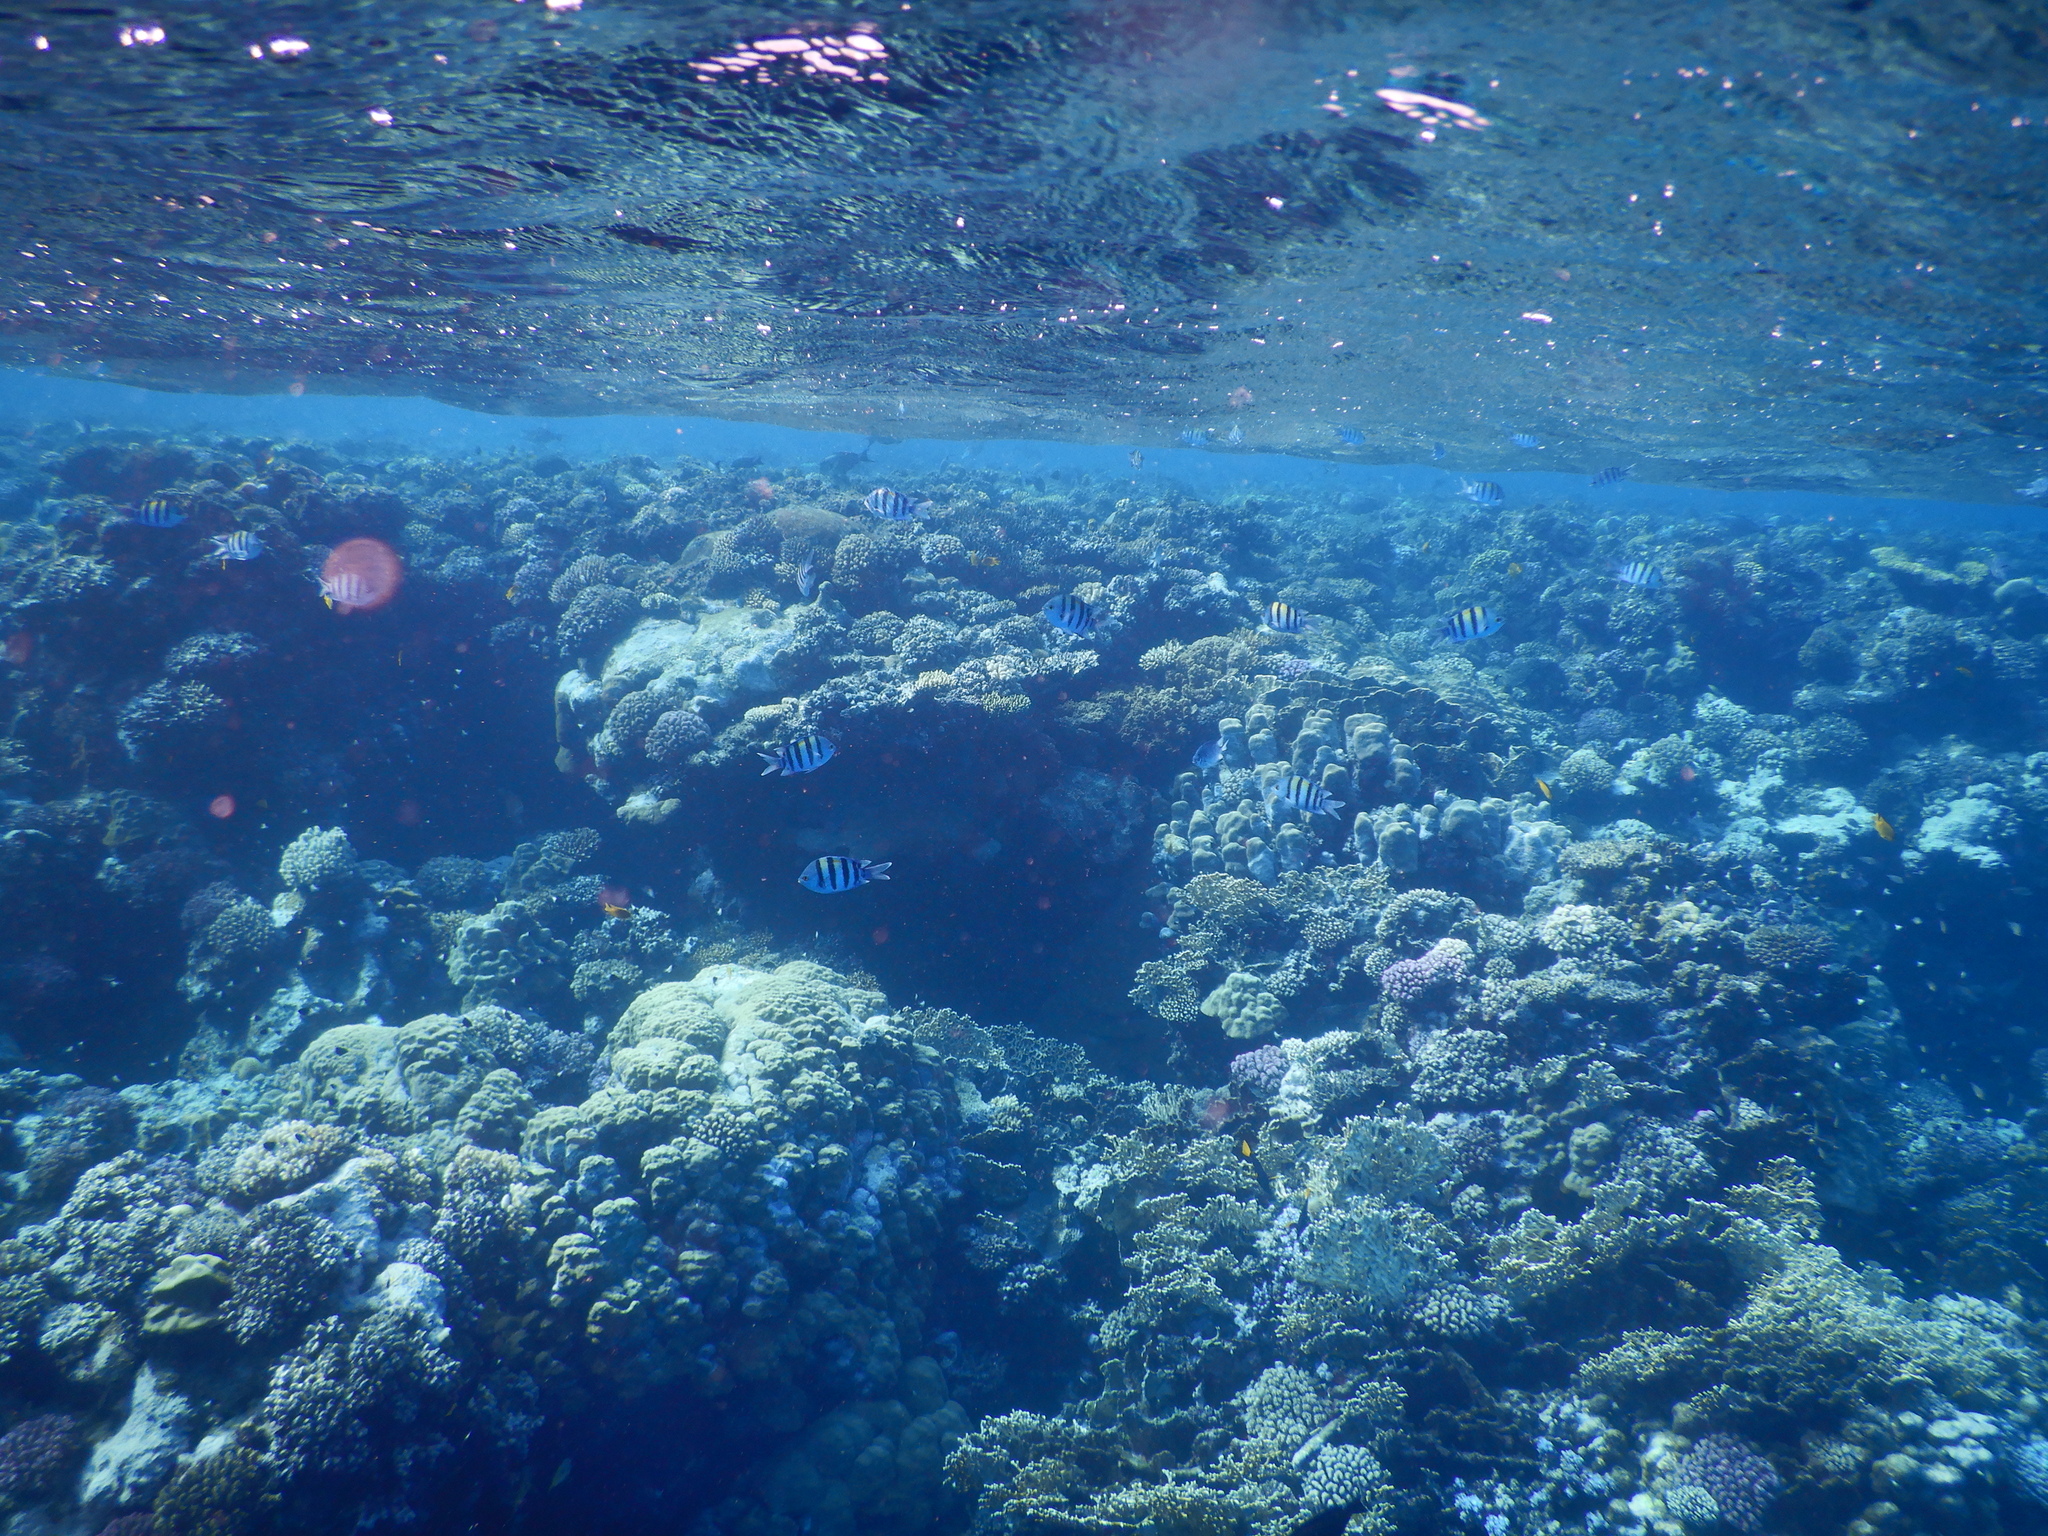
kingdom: Animalia
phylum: Chordata
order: Perciformes
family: Pomacentridae
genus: Abudefduf
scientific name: Abudefduf vaigiensis
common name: Indo-pacific sergeant
